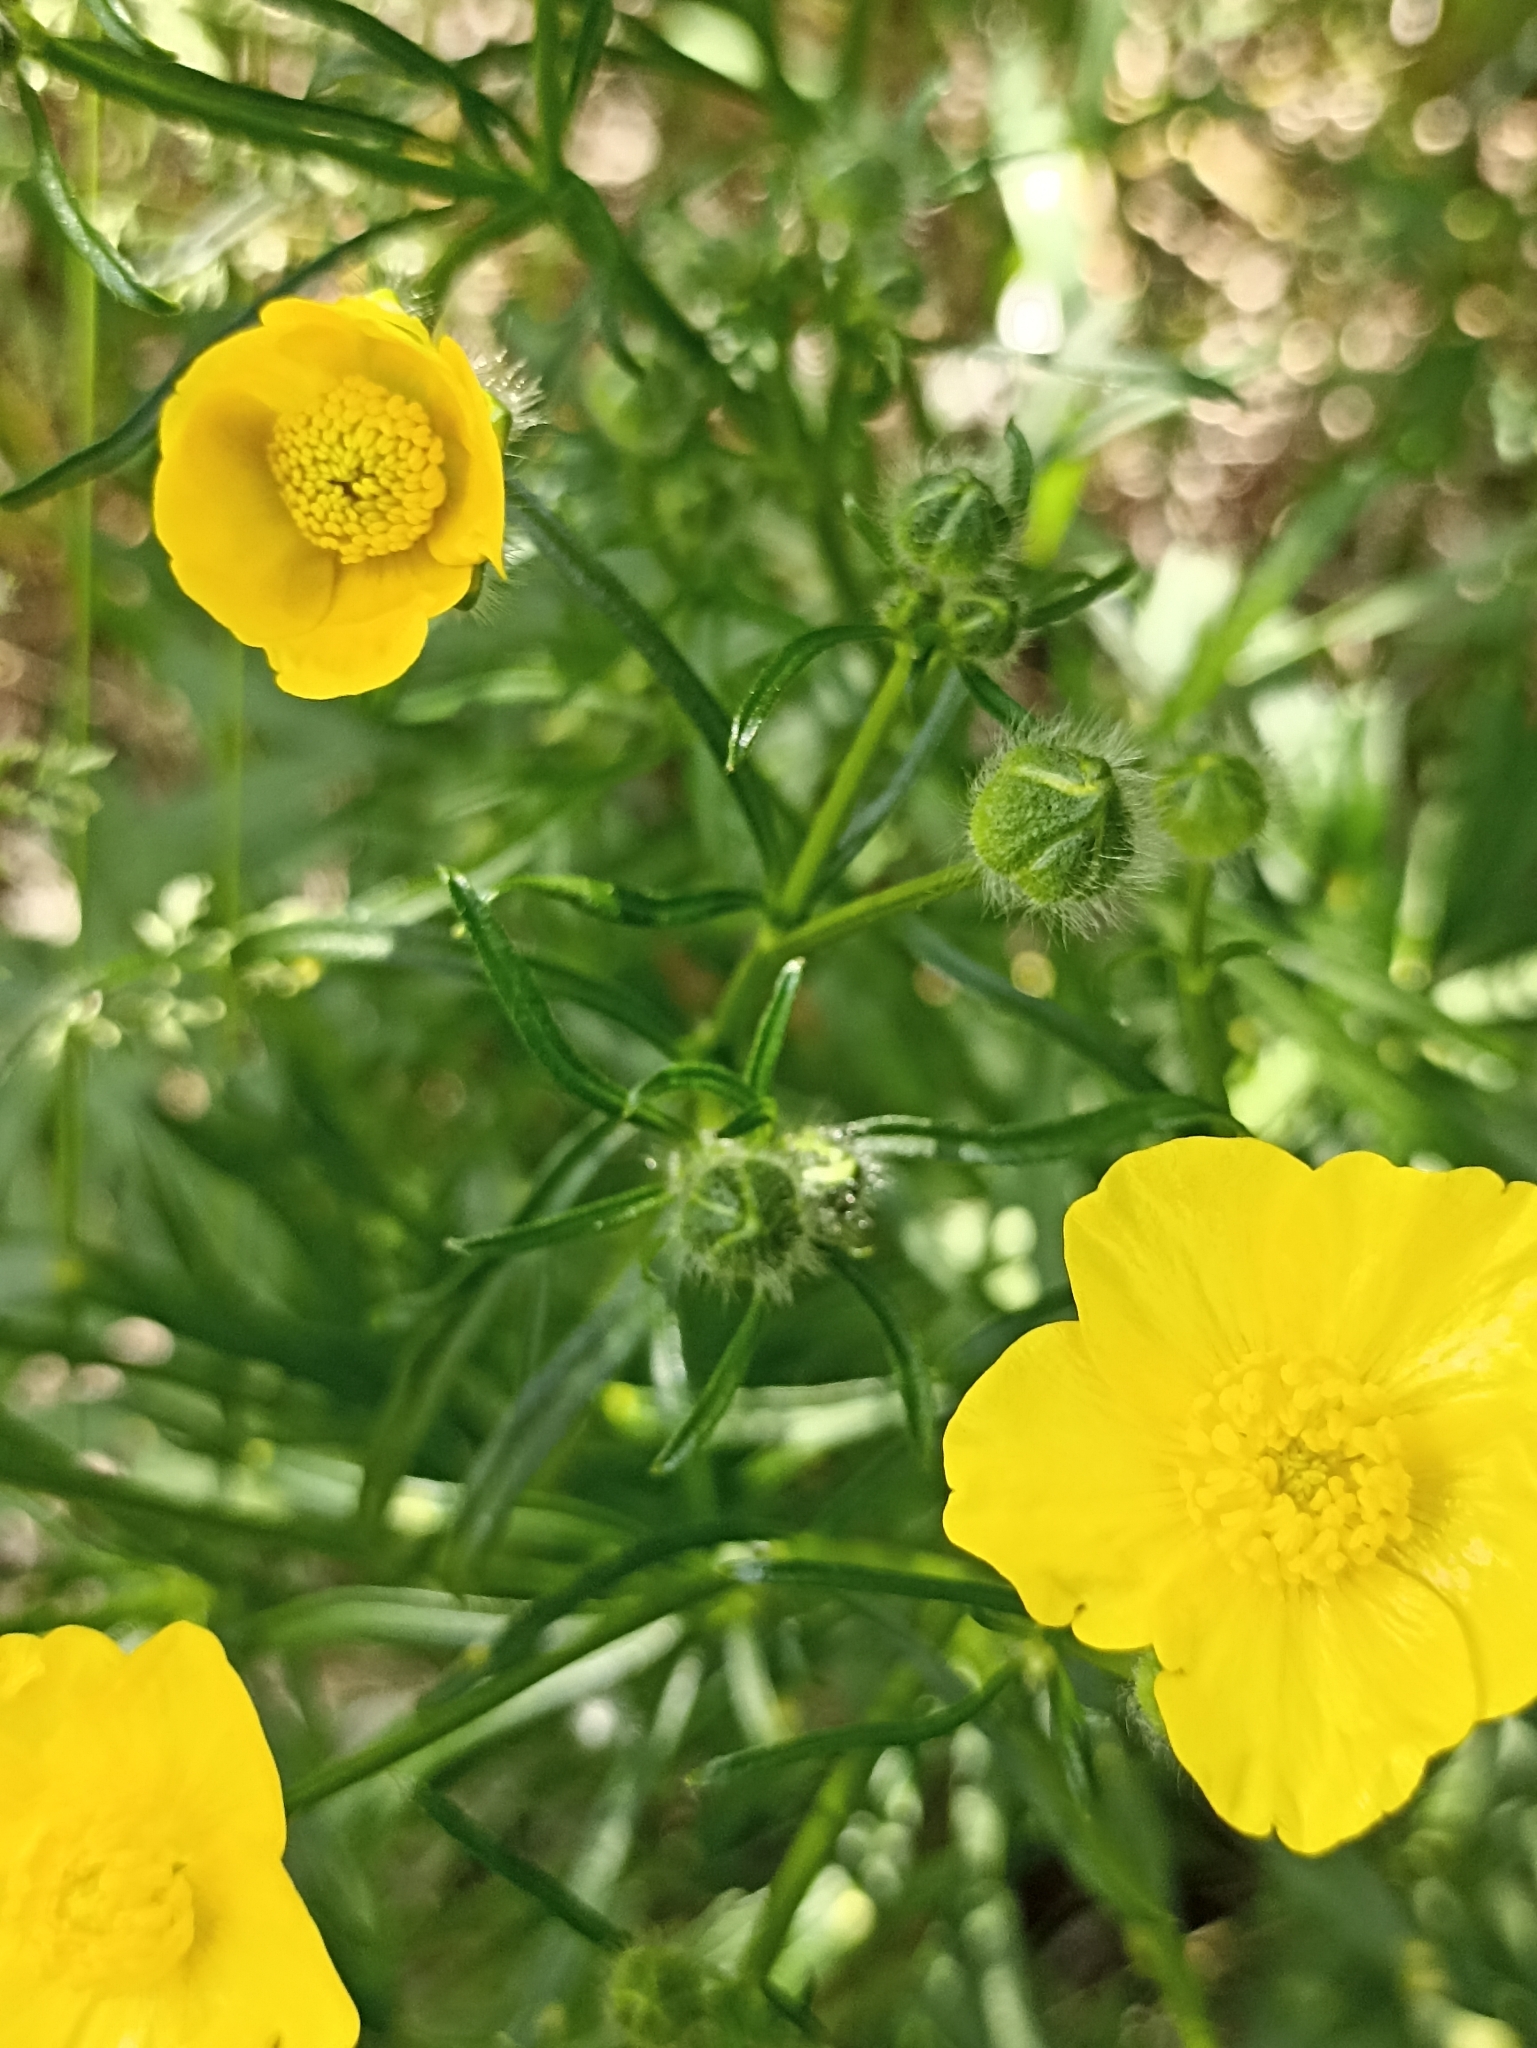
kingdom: Plantae
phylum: Tracheophyta
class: Magnoliopsida
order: Ranunculales
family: Ranunculaceae
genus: Ranunculus
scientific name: Ranunculus polyanthemos
